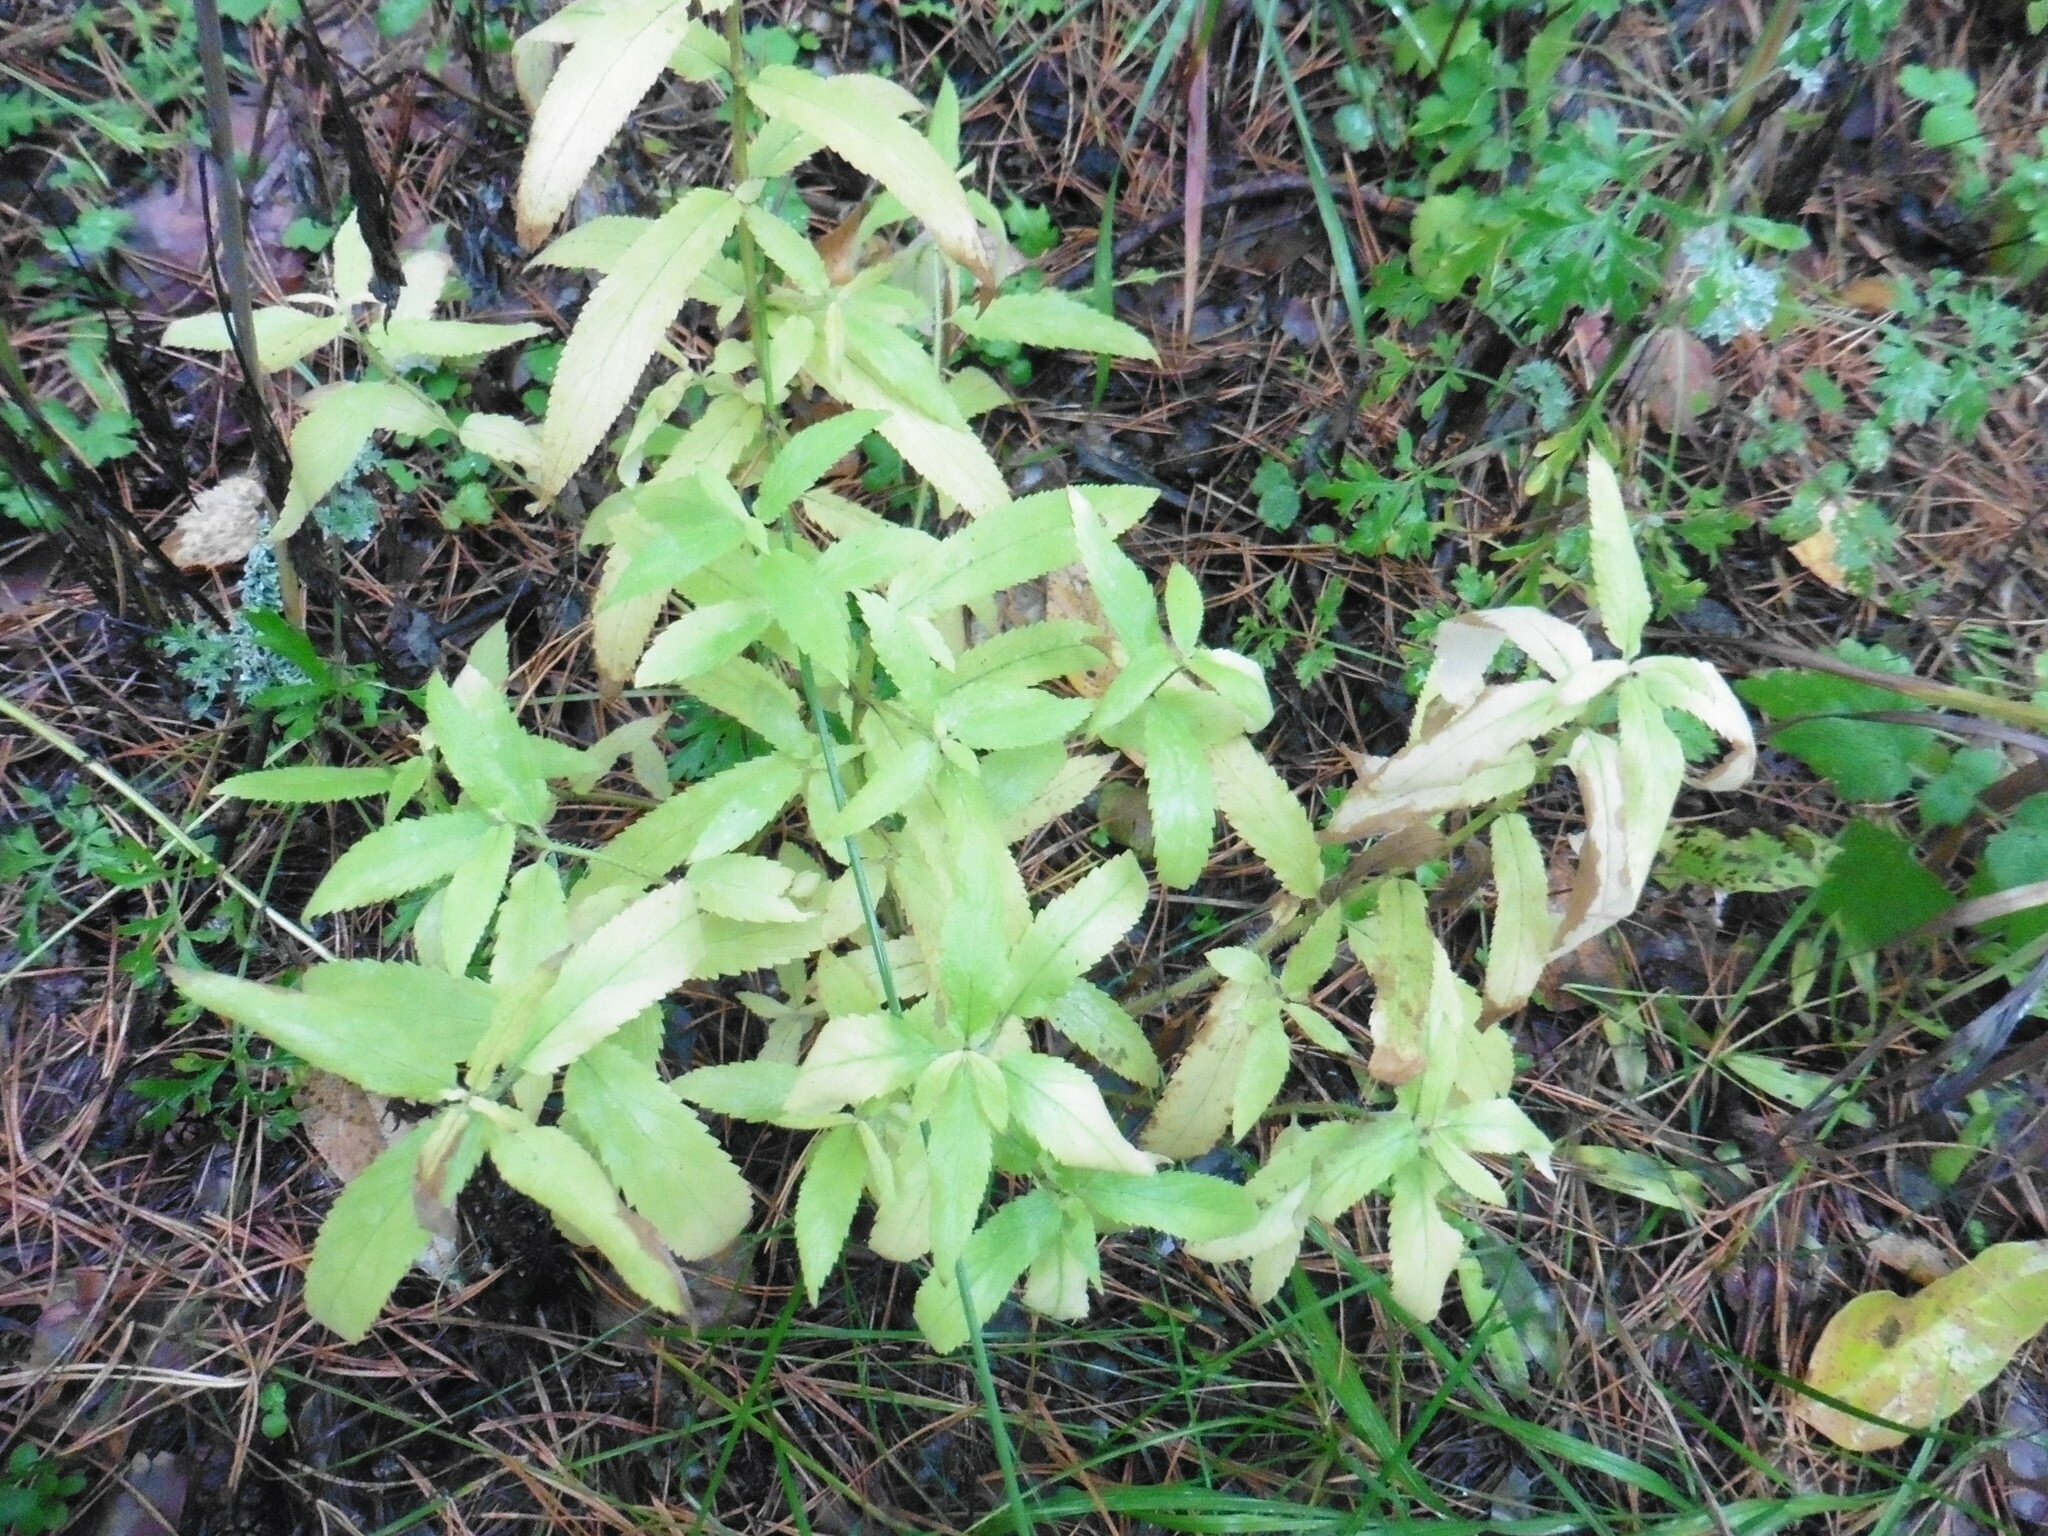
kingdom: Plantae
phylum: Tracheophyta
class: Magnoliopsida
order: Lamiales
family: Lamiaceae
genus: Stachys
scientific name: Stachys palustris
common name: Marsh woundwort
